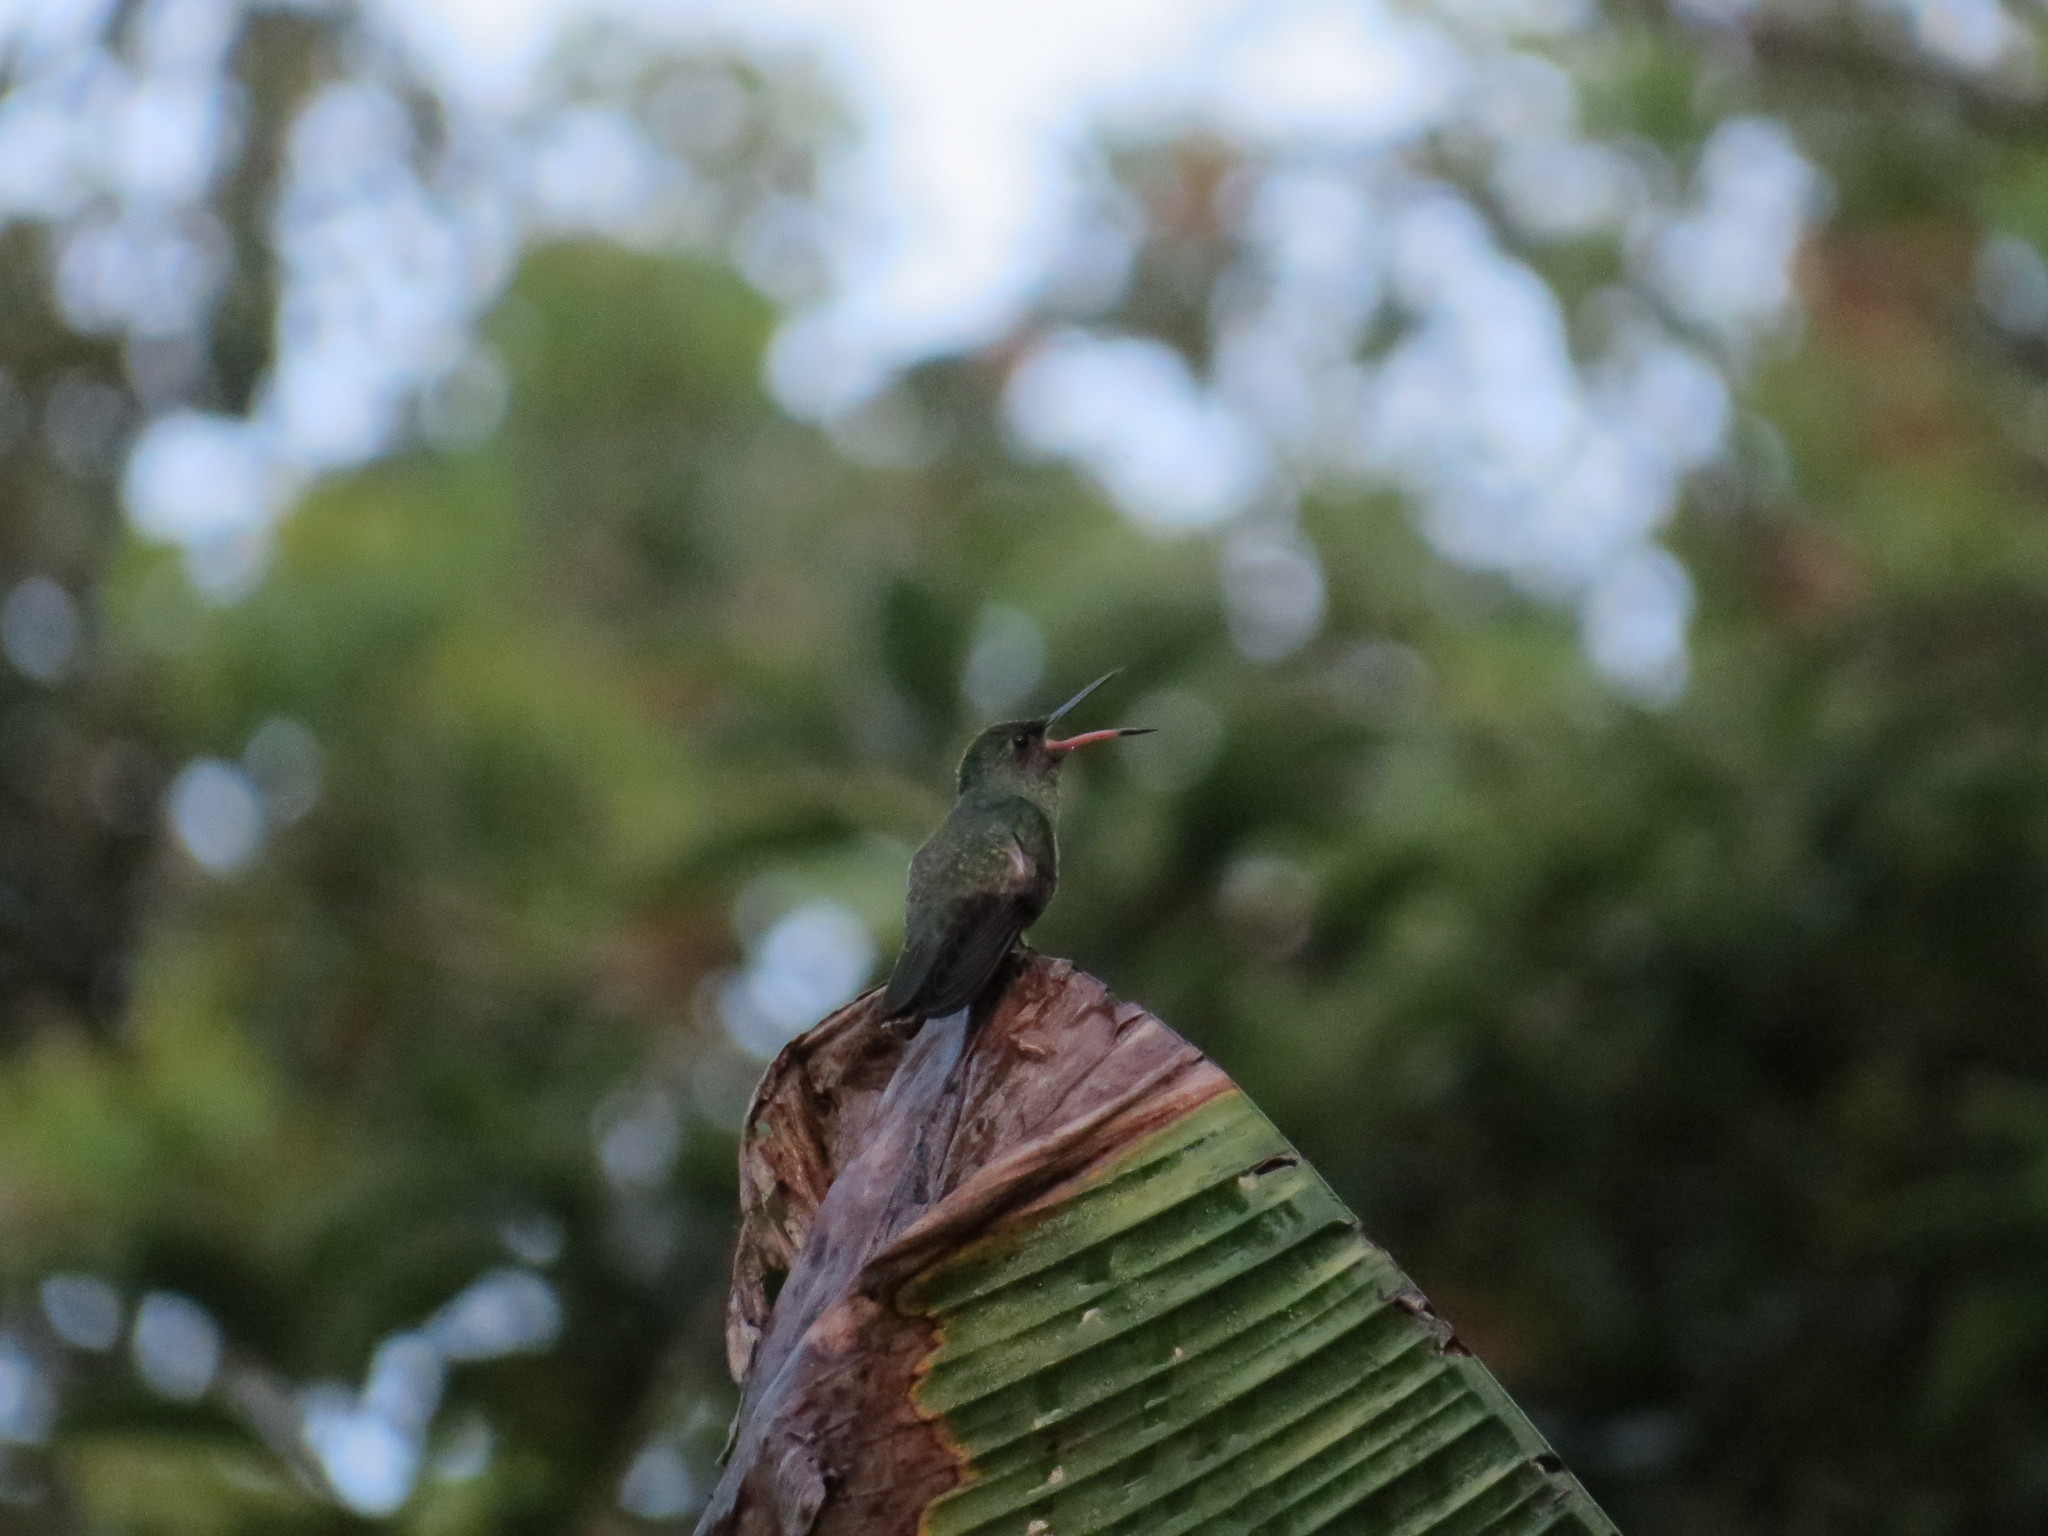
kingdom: Animalia
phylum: Chordata
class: Aves
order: Apodiformes
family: Trochilidae
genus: Phaeochroa
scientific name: Phaeochroa cuvierii
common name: Scaly-breasted hummingbird
